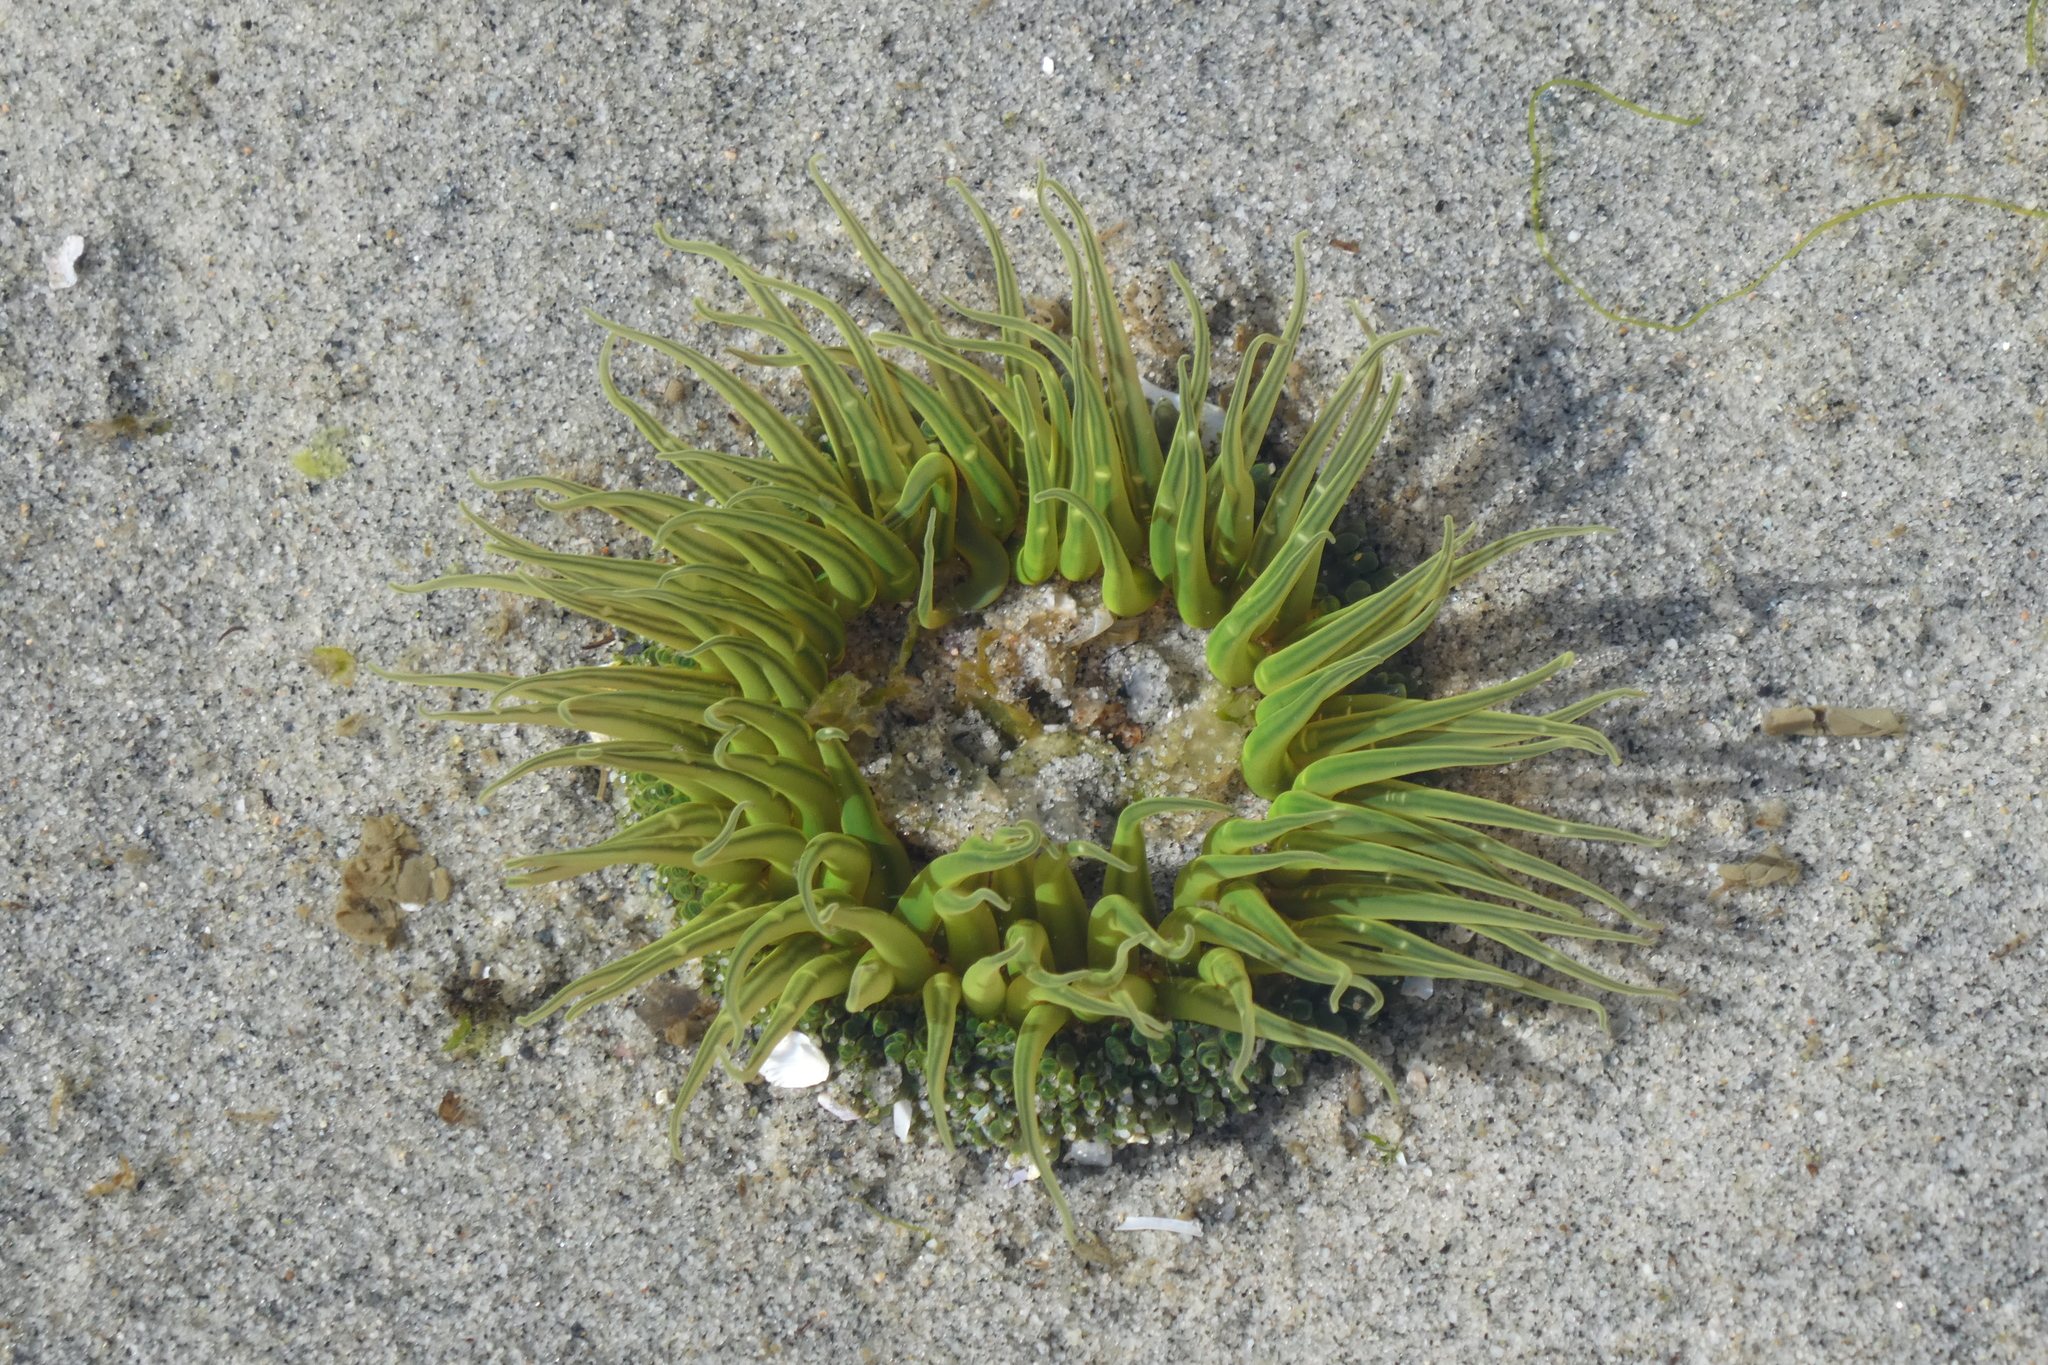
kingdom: Animalia
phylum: Cnidaria
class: Anthozoa
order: Actiniaria
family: Actiniidae
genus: Anthopleura
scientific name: Anthopleura artemisia
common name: Buried sea anemone
